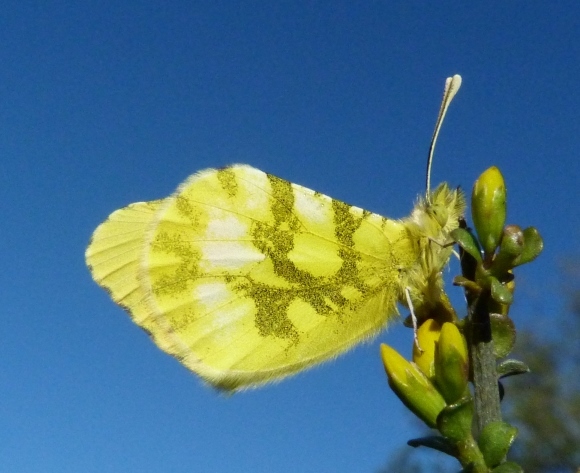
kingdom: Animalia
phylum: Arthropoda
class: Insecta
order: Lepidoptera
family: Pieridae
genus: Anthocharis
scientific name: Anthocharis euphenoides
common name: Provence orange-tip
